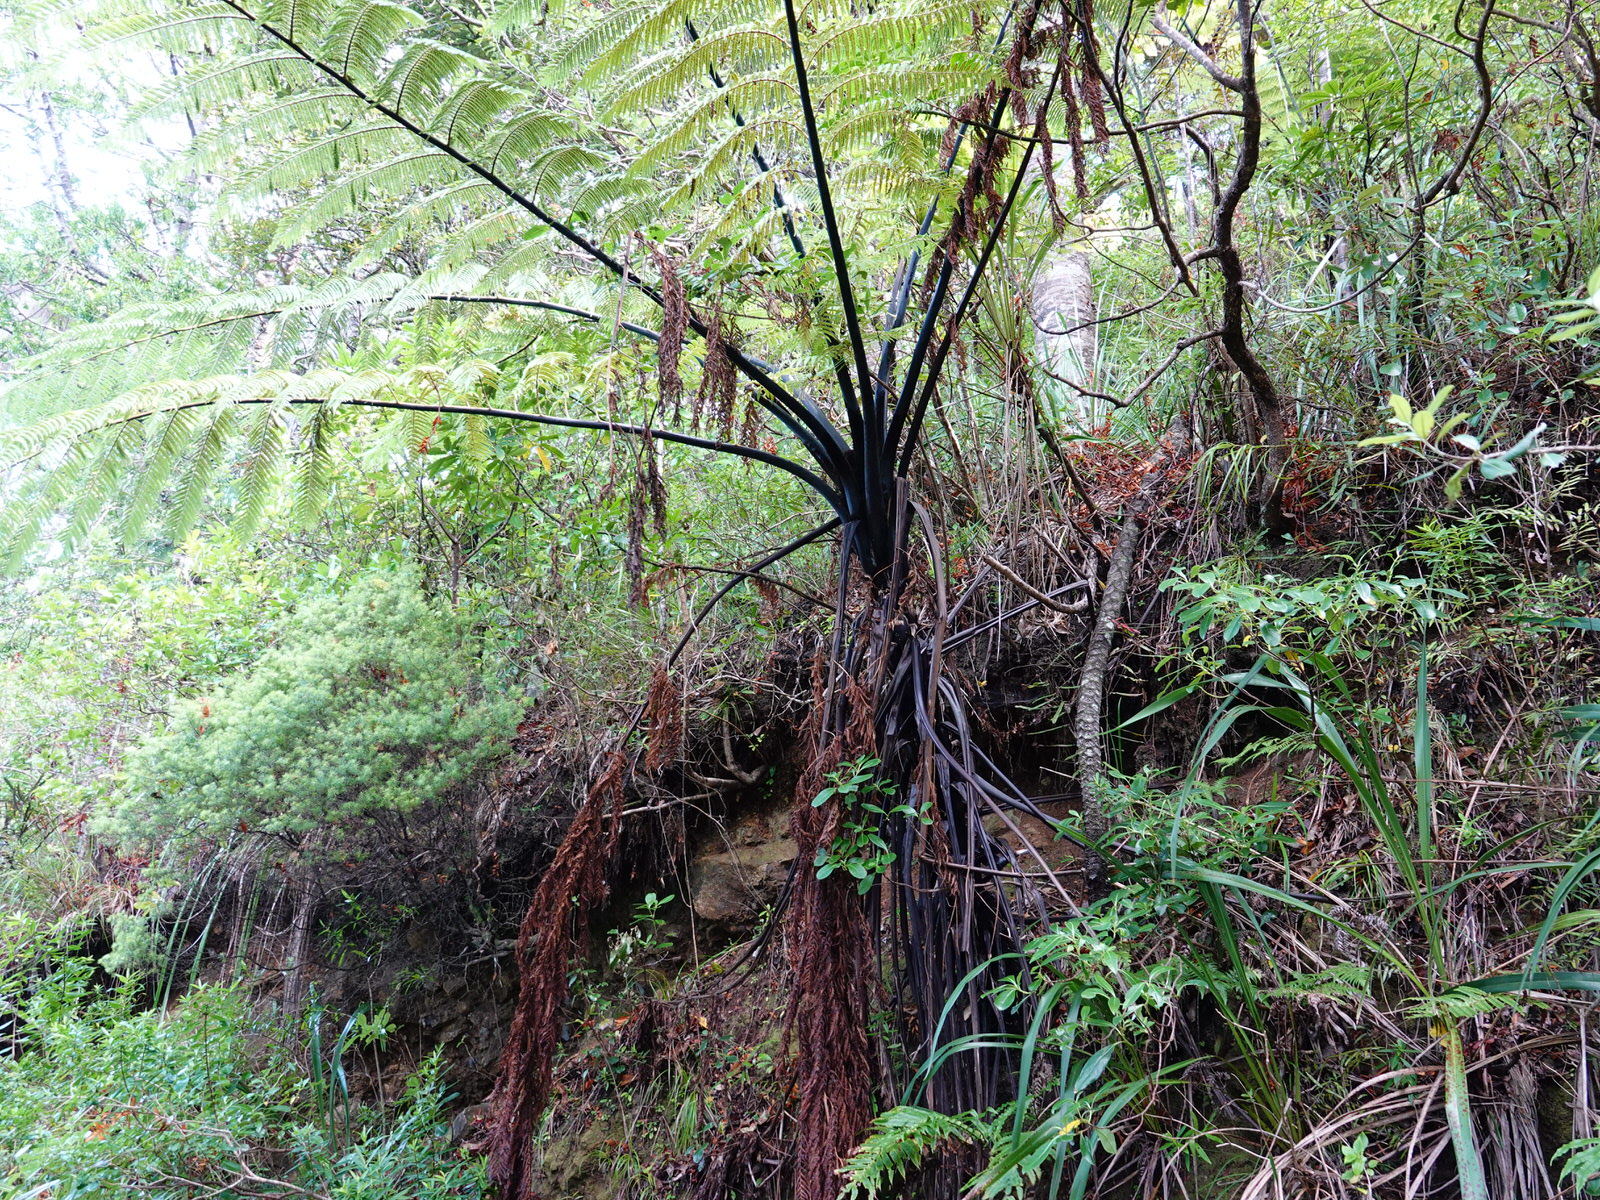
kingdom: Plantae
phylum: Tracheophyta
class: Polypodiopsida
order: Cyatheales
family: Cyatheaceae
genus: Sphaeropteris
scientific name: Sphaeropteris medullaris
